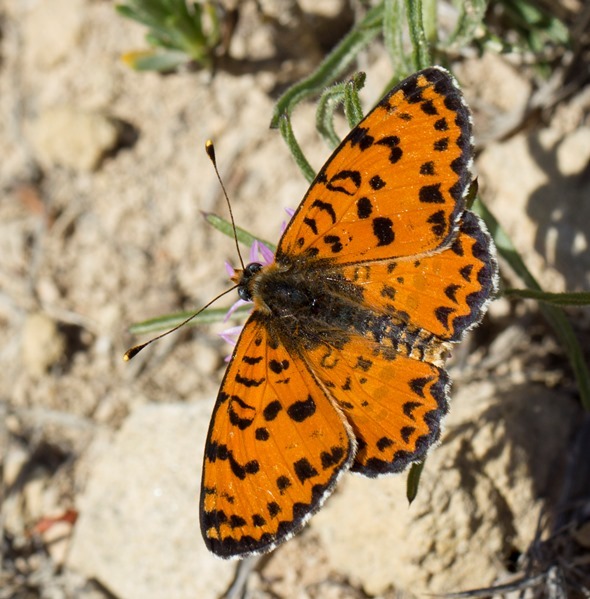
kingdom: Animalia
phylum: Arthropoda
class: Insecta
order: Lepidoptera
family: Nymphalidae
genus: Melitaea
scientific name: Melitaea didyma
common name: Spotted fritillary
